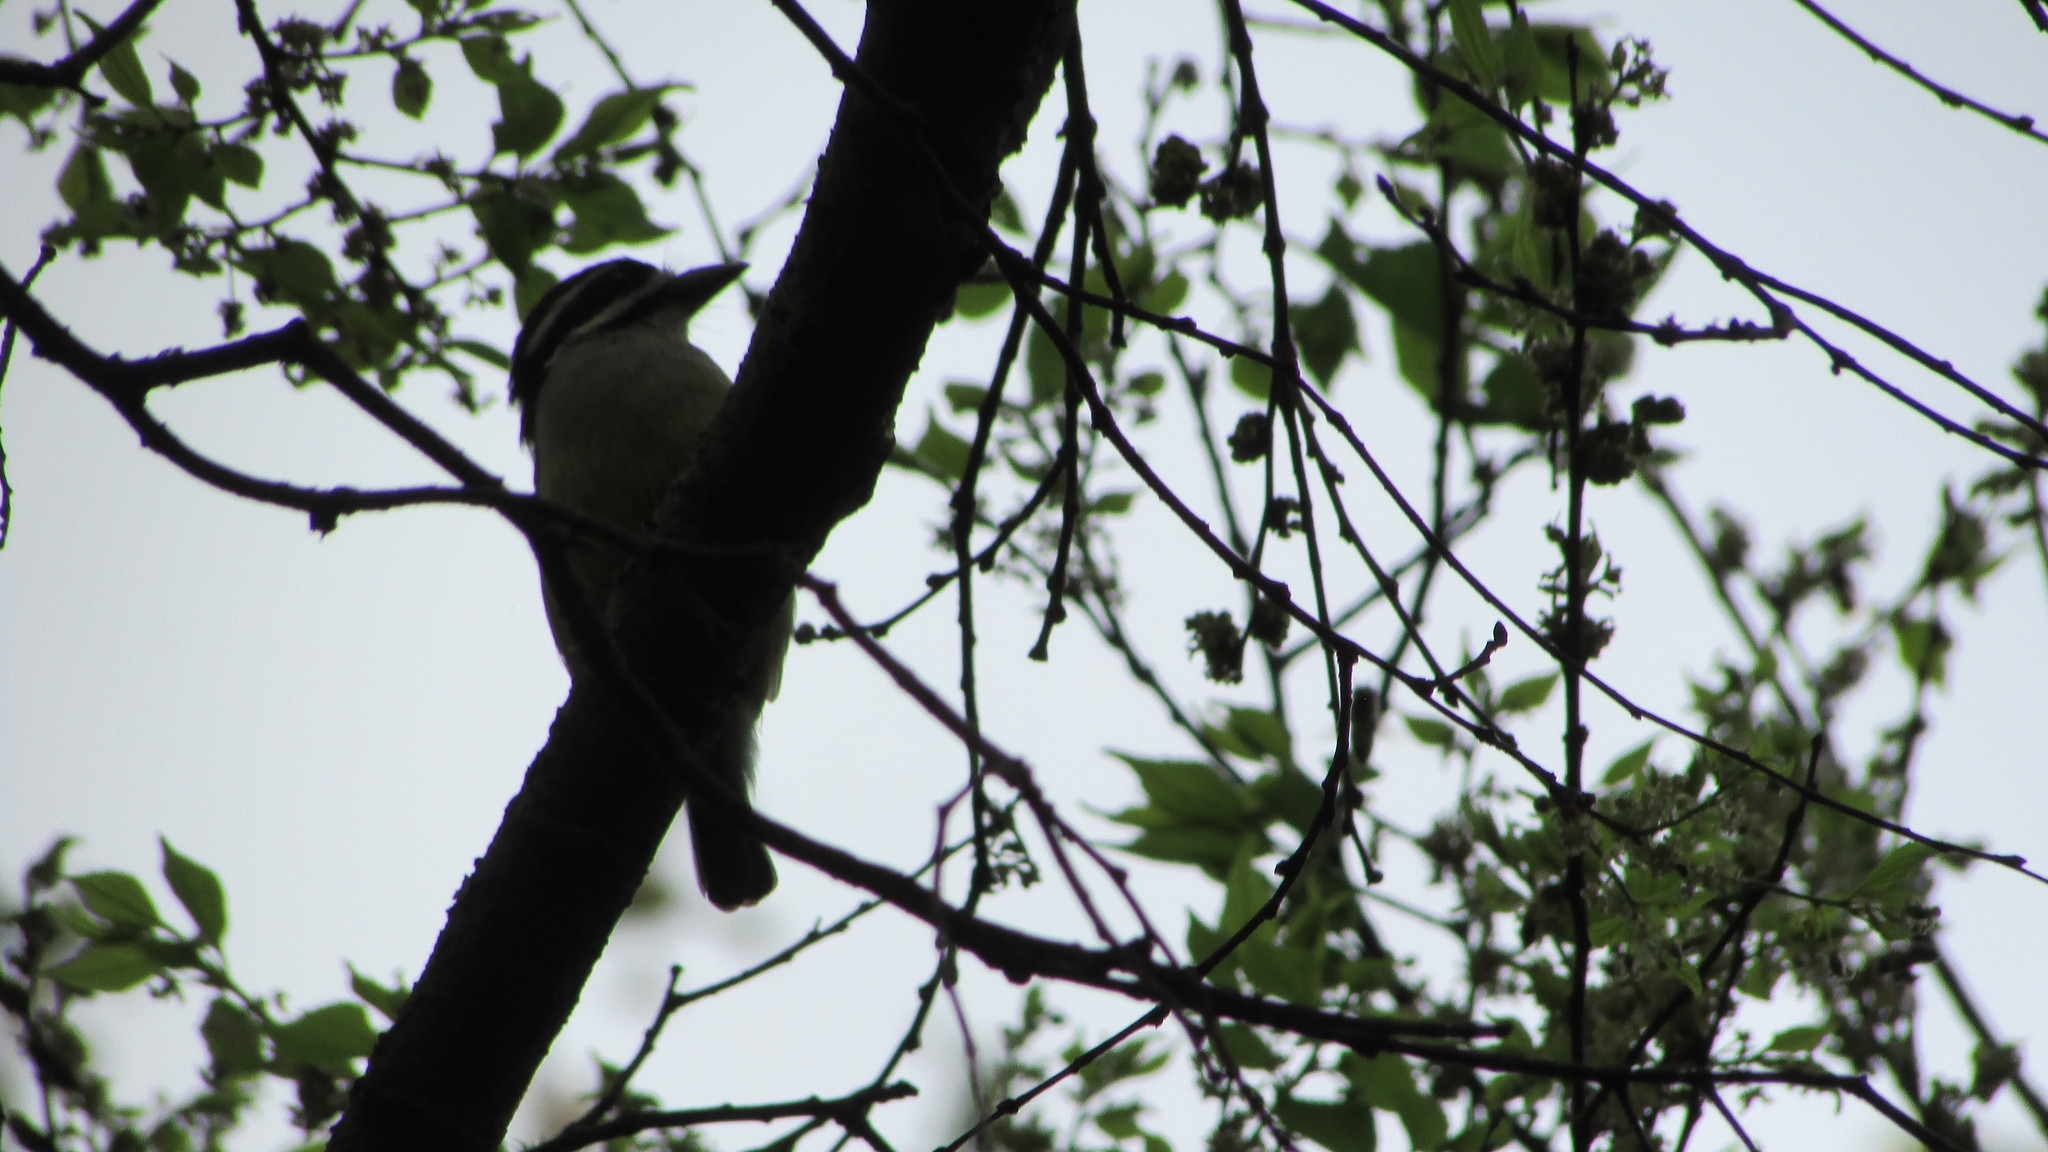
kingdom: Animalia
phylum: Chordata
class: Aves
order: Piciformes
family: Lybiidae
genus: Pogoniulus
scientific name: Pogoniulus bilineatus
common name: Yellow-rumped tinkerbird
